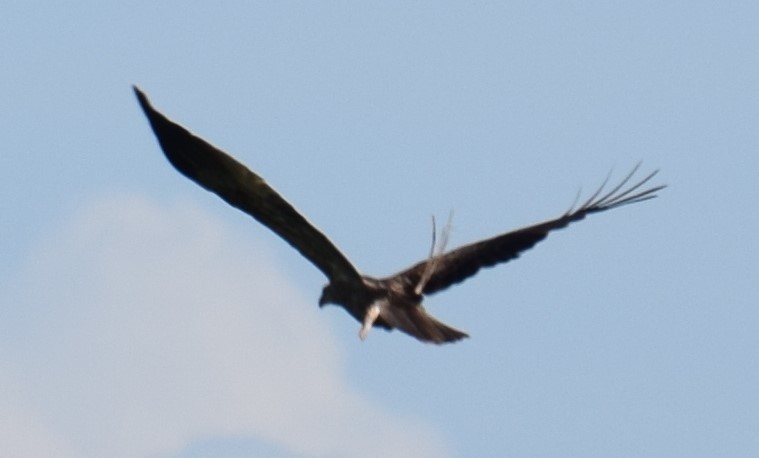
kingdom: Animalia
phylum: Chordata
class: Aves
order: Accipitriformes
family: Accipitridae
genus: Haliastur
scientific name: Haliastur sphenurus
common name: Whistling kite
